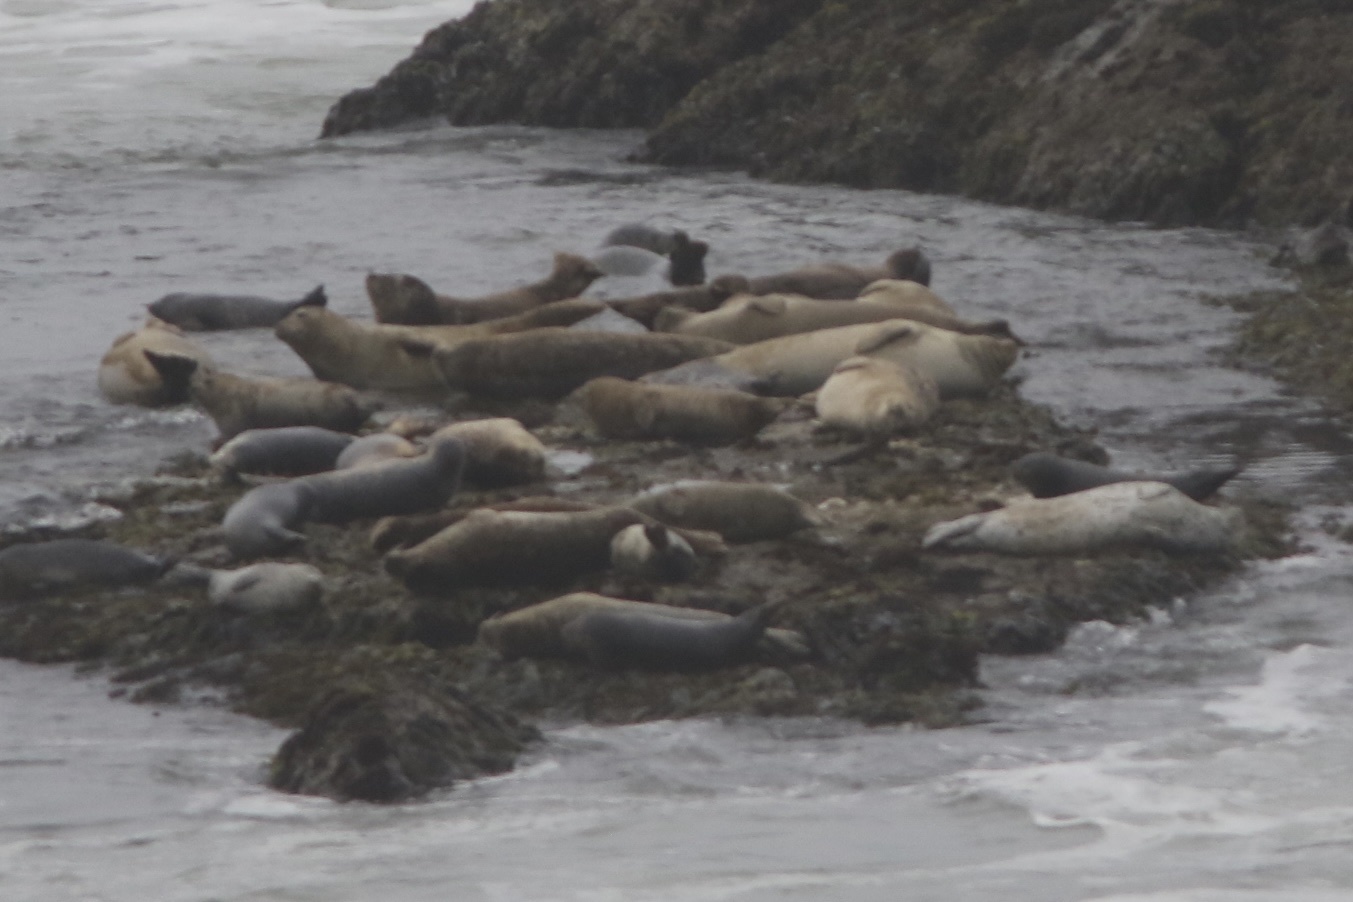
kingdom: Animalia
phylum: Chordata
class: Mammalia
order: Carnivora
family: Phocidae
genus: Phoca
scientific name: Phoca vitulina
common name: Harbor seal
